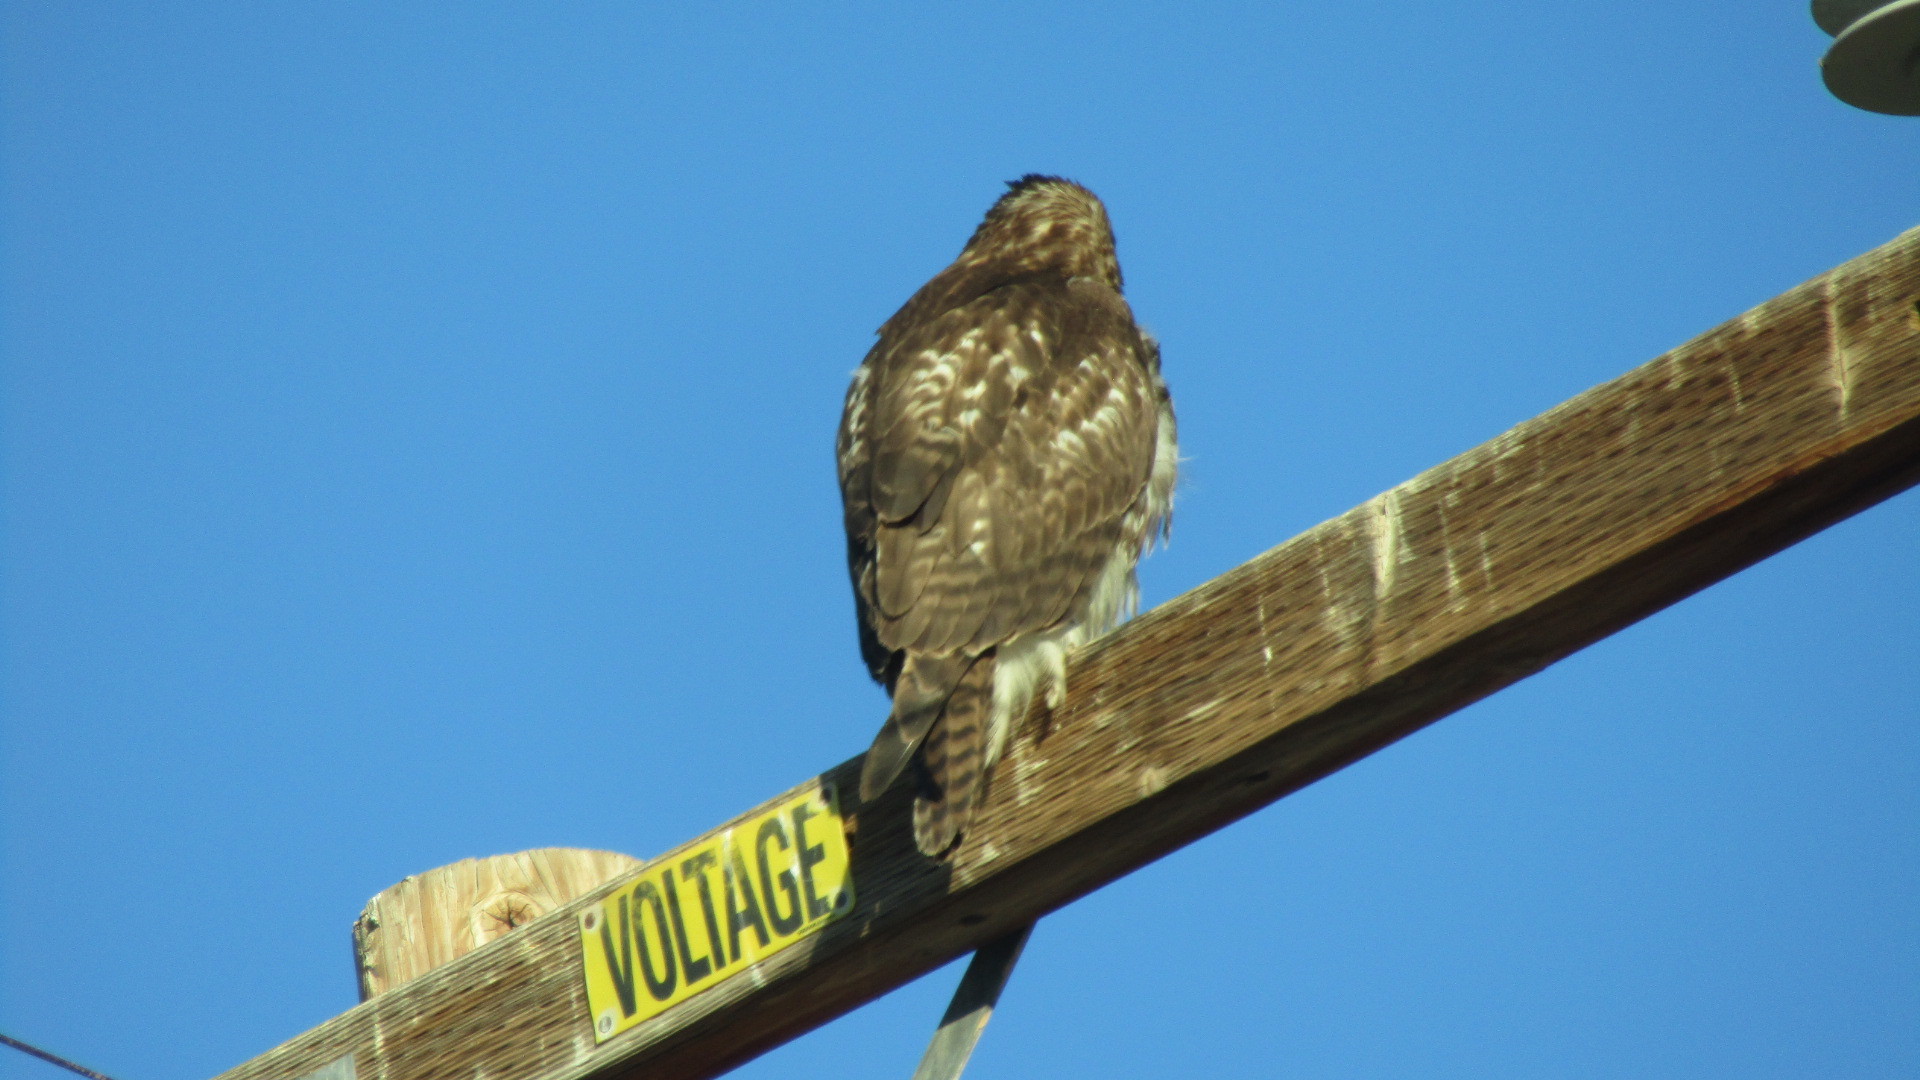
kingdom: Animalia
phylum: Chordata
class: Aves
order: Accipitriformes
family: Accipitridae
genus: Buteo
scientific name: Buteo jamaicensis
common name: Red-tailed hawk
